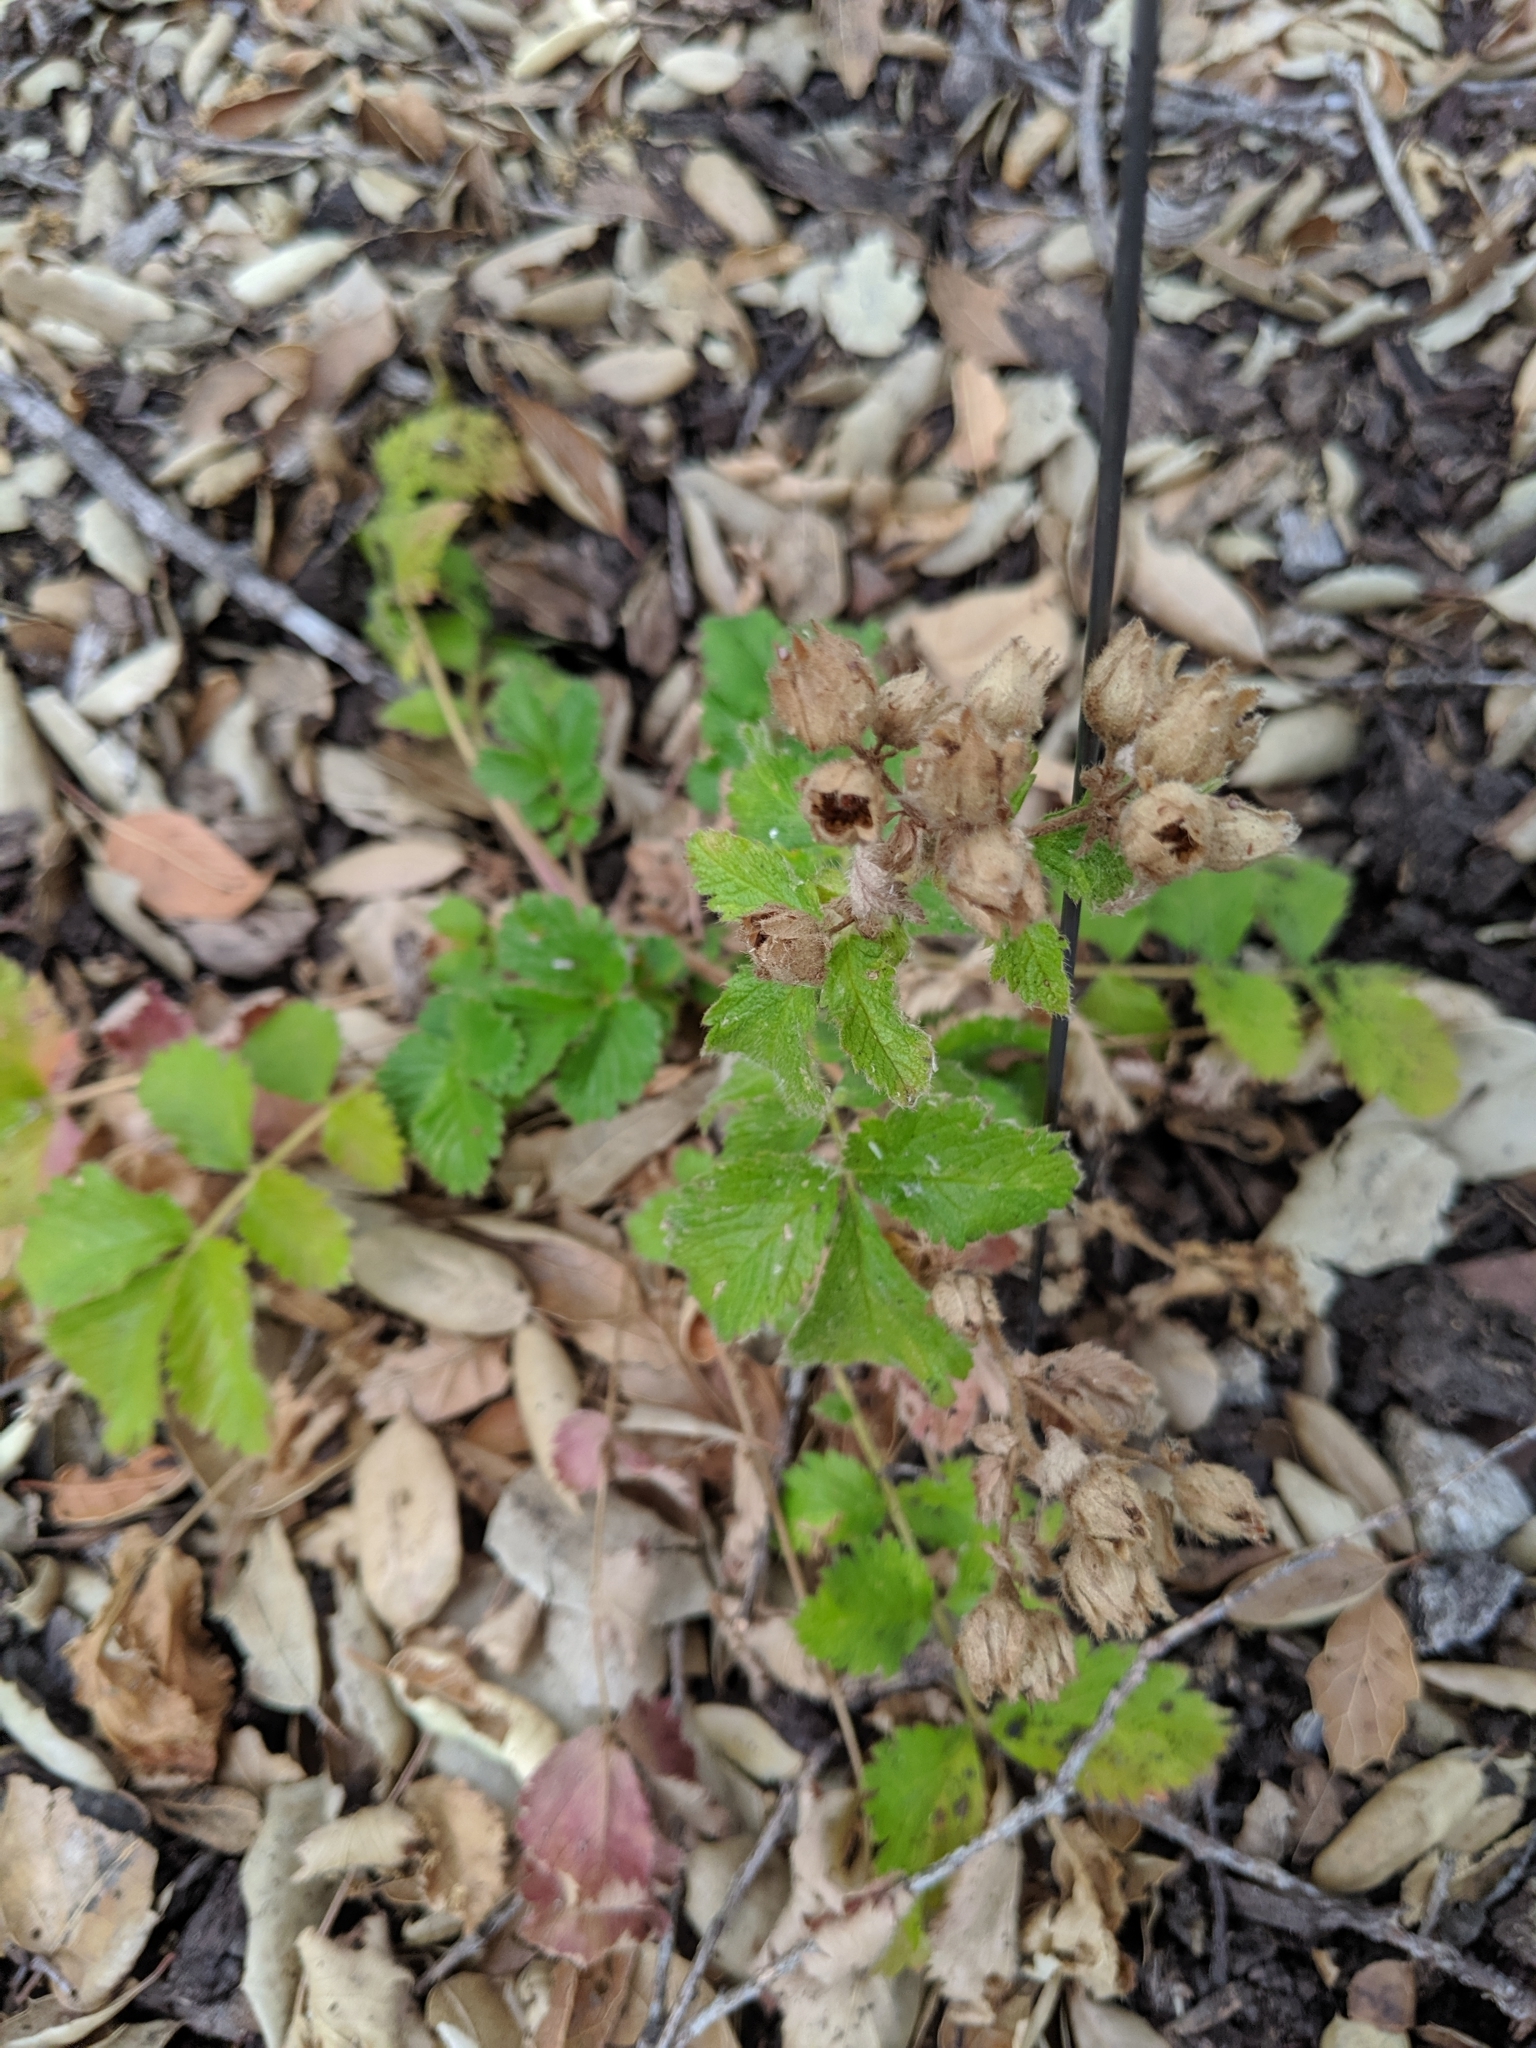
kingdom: Plantae
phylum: Tracheophyta
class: Magnoliopsida
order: Rosales
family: Rosaceae
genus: Drymocallis
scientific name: Drymocallis glandulosa
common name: Sticky cinquefoil
